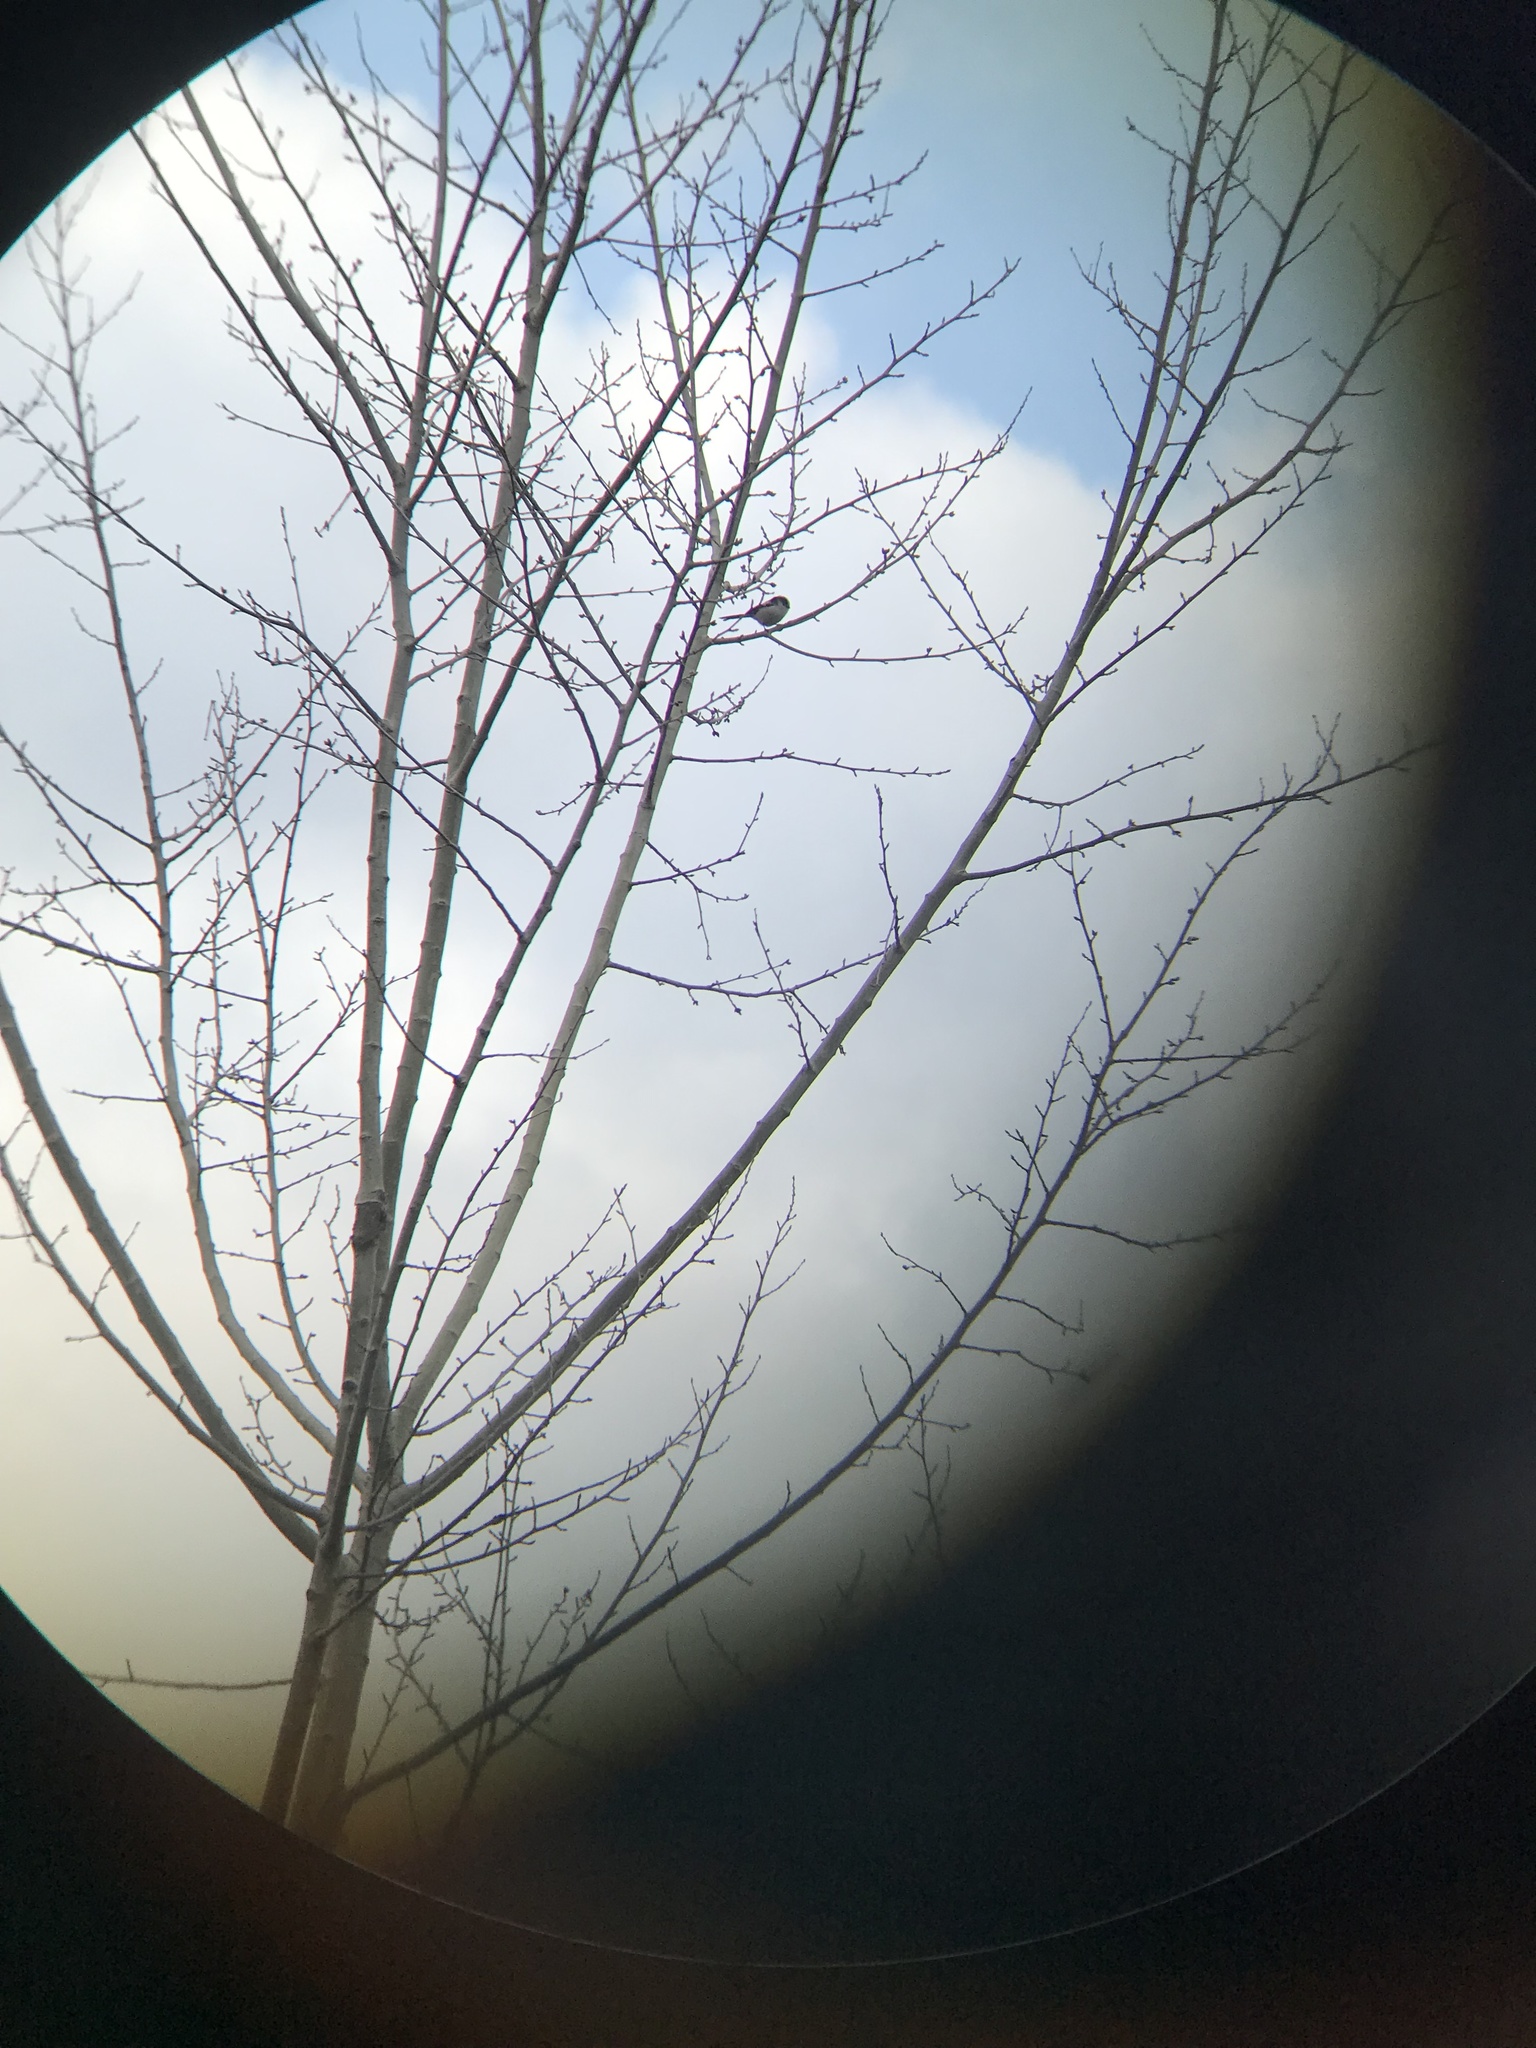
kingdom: Animalia
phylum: Chordata
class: Aves
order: Passeriformes
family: Aegithalidae
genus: Aegithalos
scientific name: Aegithalos caudatus
